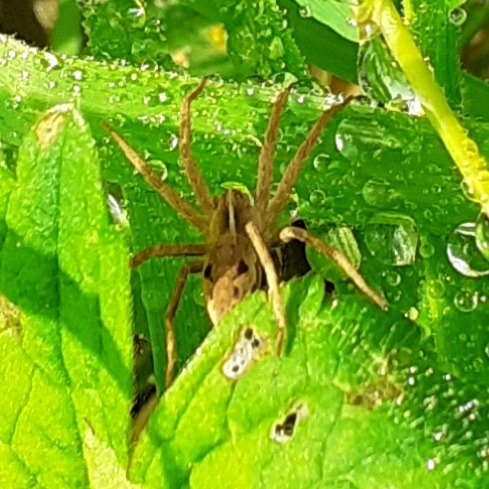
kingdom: Animalia
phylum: Arthropoda
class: Arachnida
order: Araneae
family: Pisauridae
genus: Pisaura
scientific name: Pisaura mirabilis
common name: Tent spider
